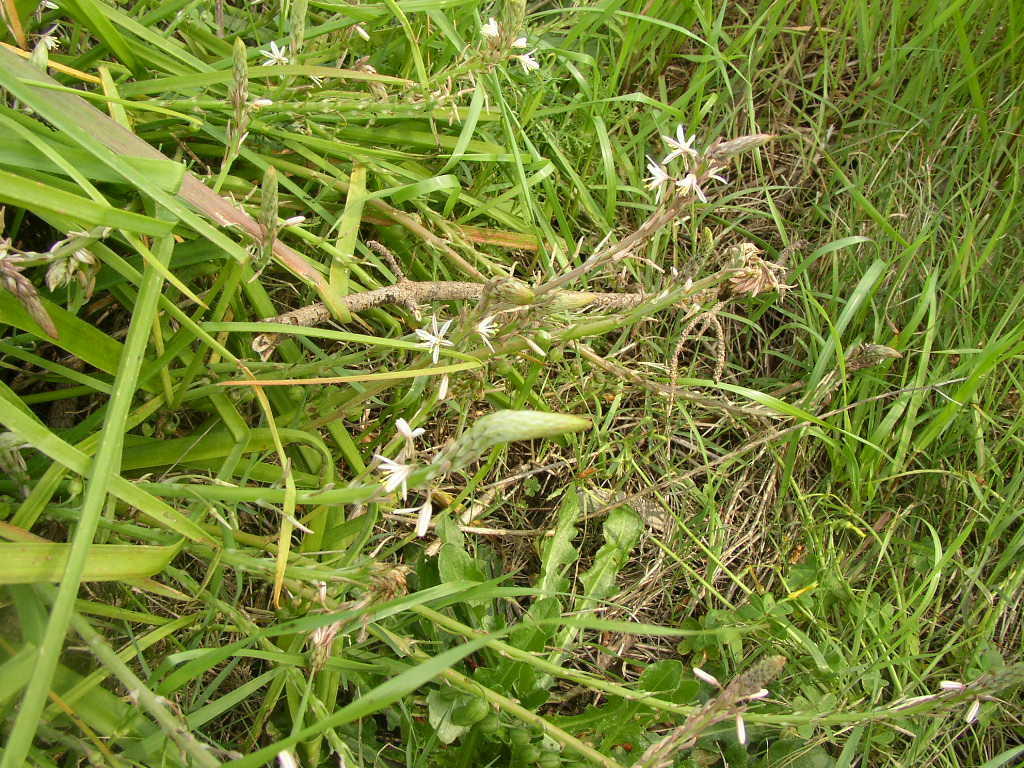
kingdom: Plantae
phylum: Tracheophyta
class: Liliopsida
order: Asparagales
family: Asphodelaceae
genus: Trachyandra
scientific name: Trachyandra ciliata
